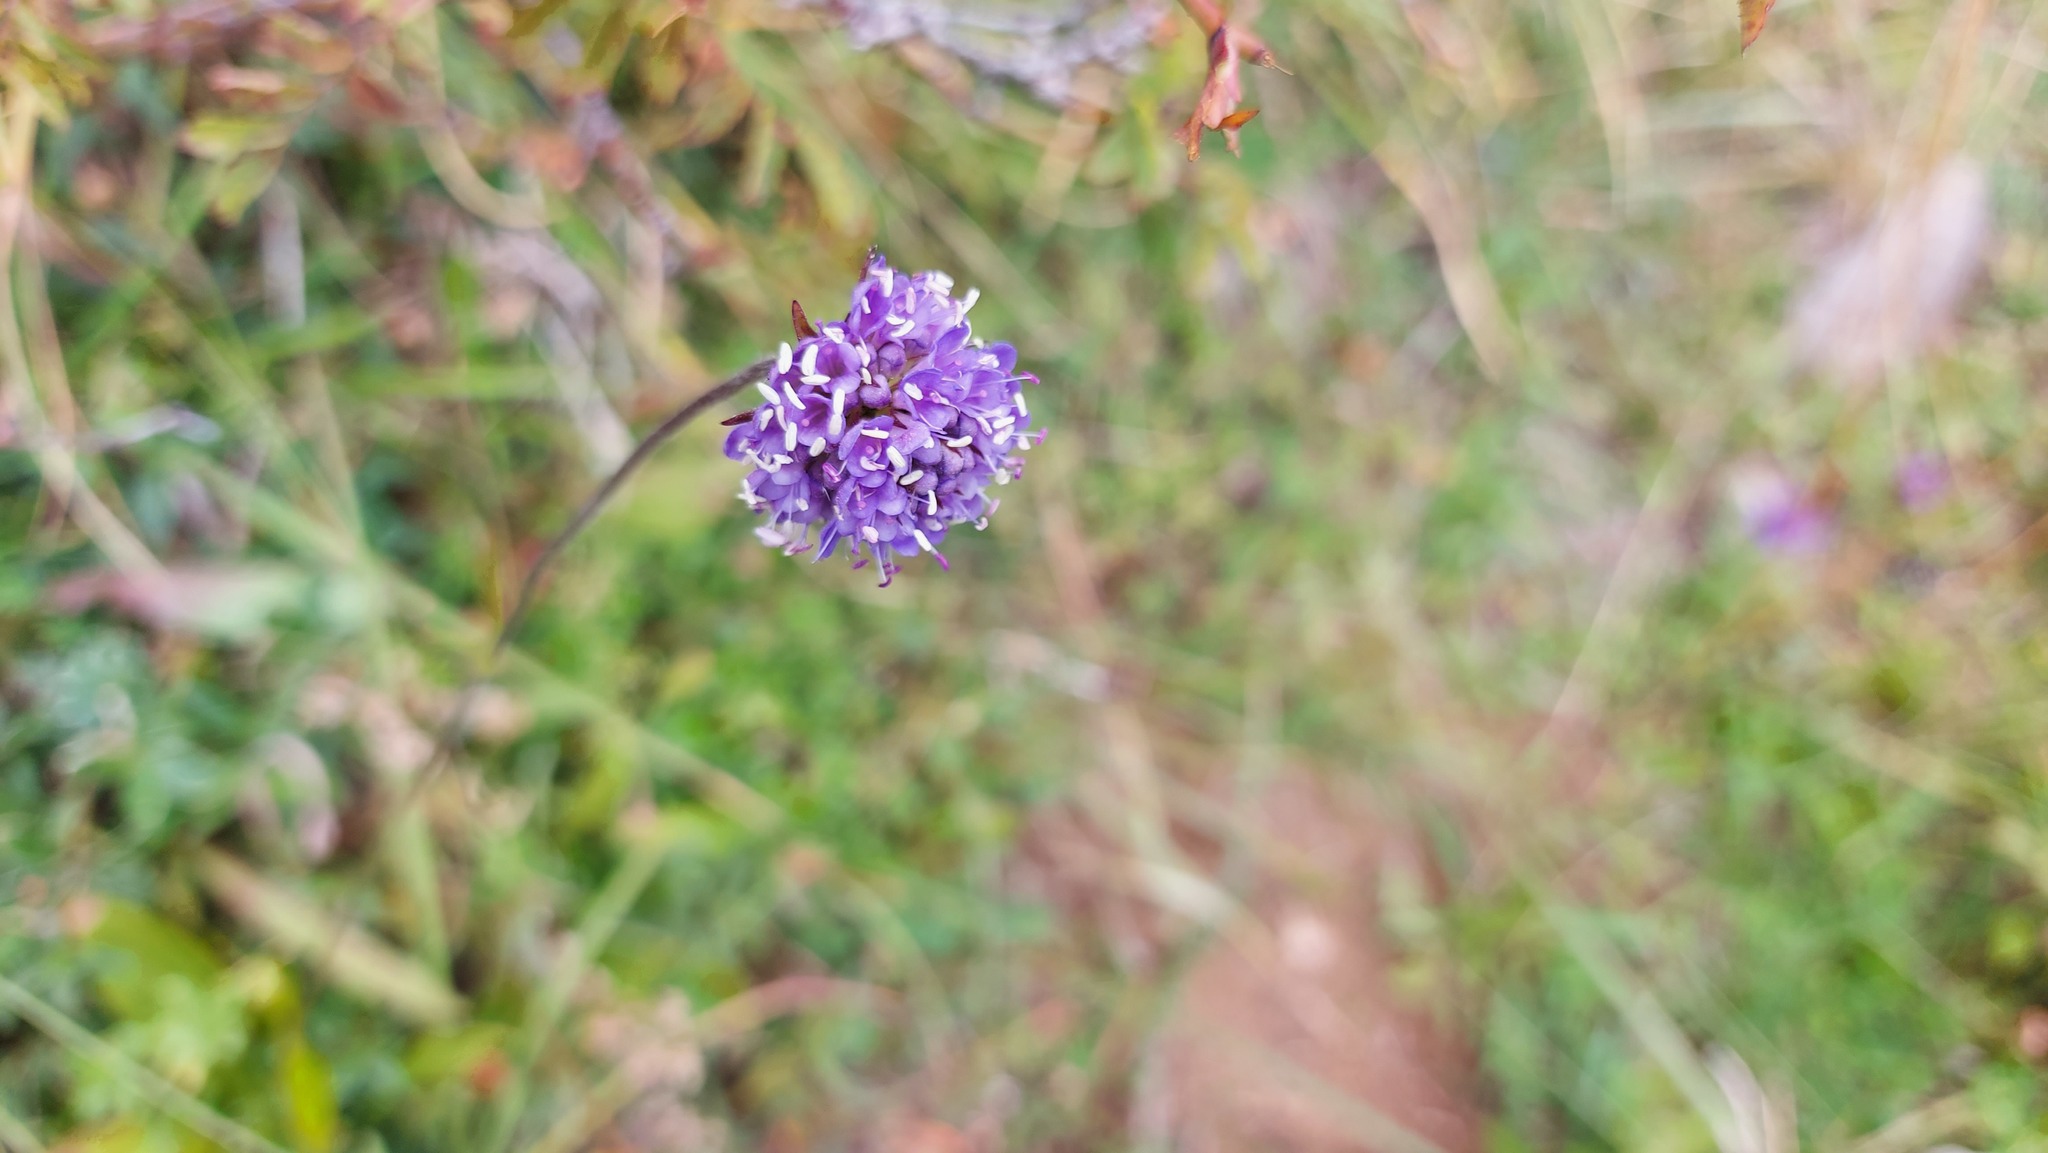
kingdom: Plantae
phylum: Tracheophyta
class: Magnoliopsida
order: Dipsacales
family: Caprifoliaceae
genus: Succisa
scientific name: Succisa pratensis
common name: Devil's-bit
